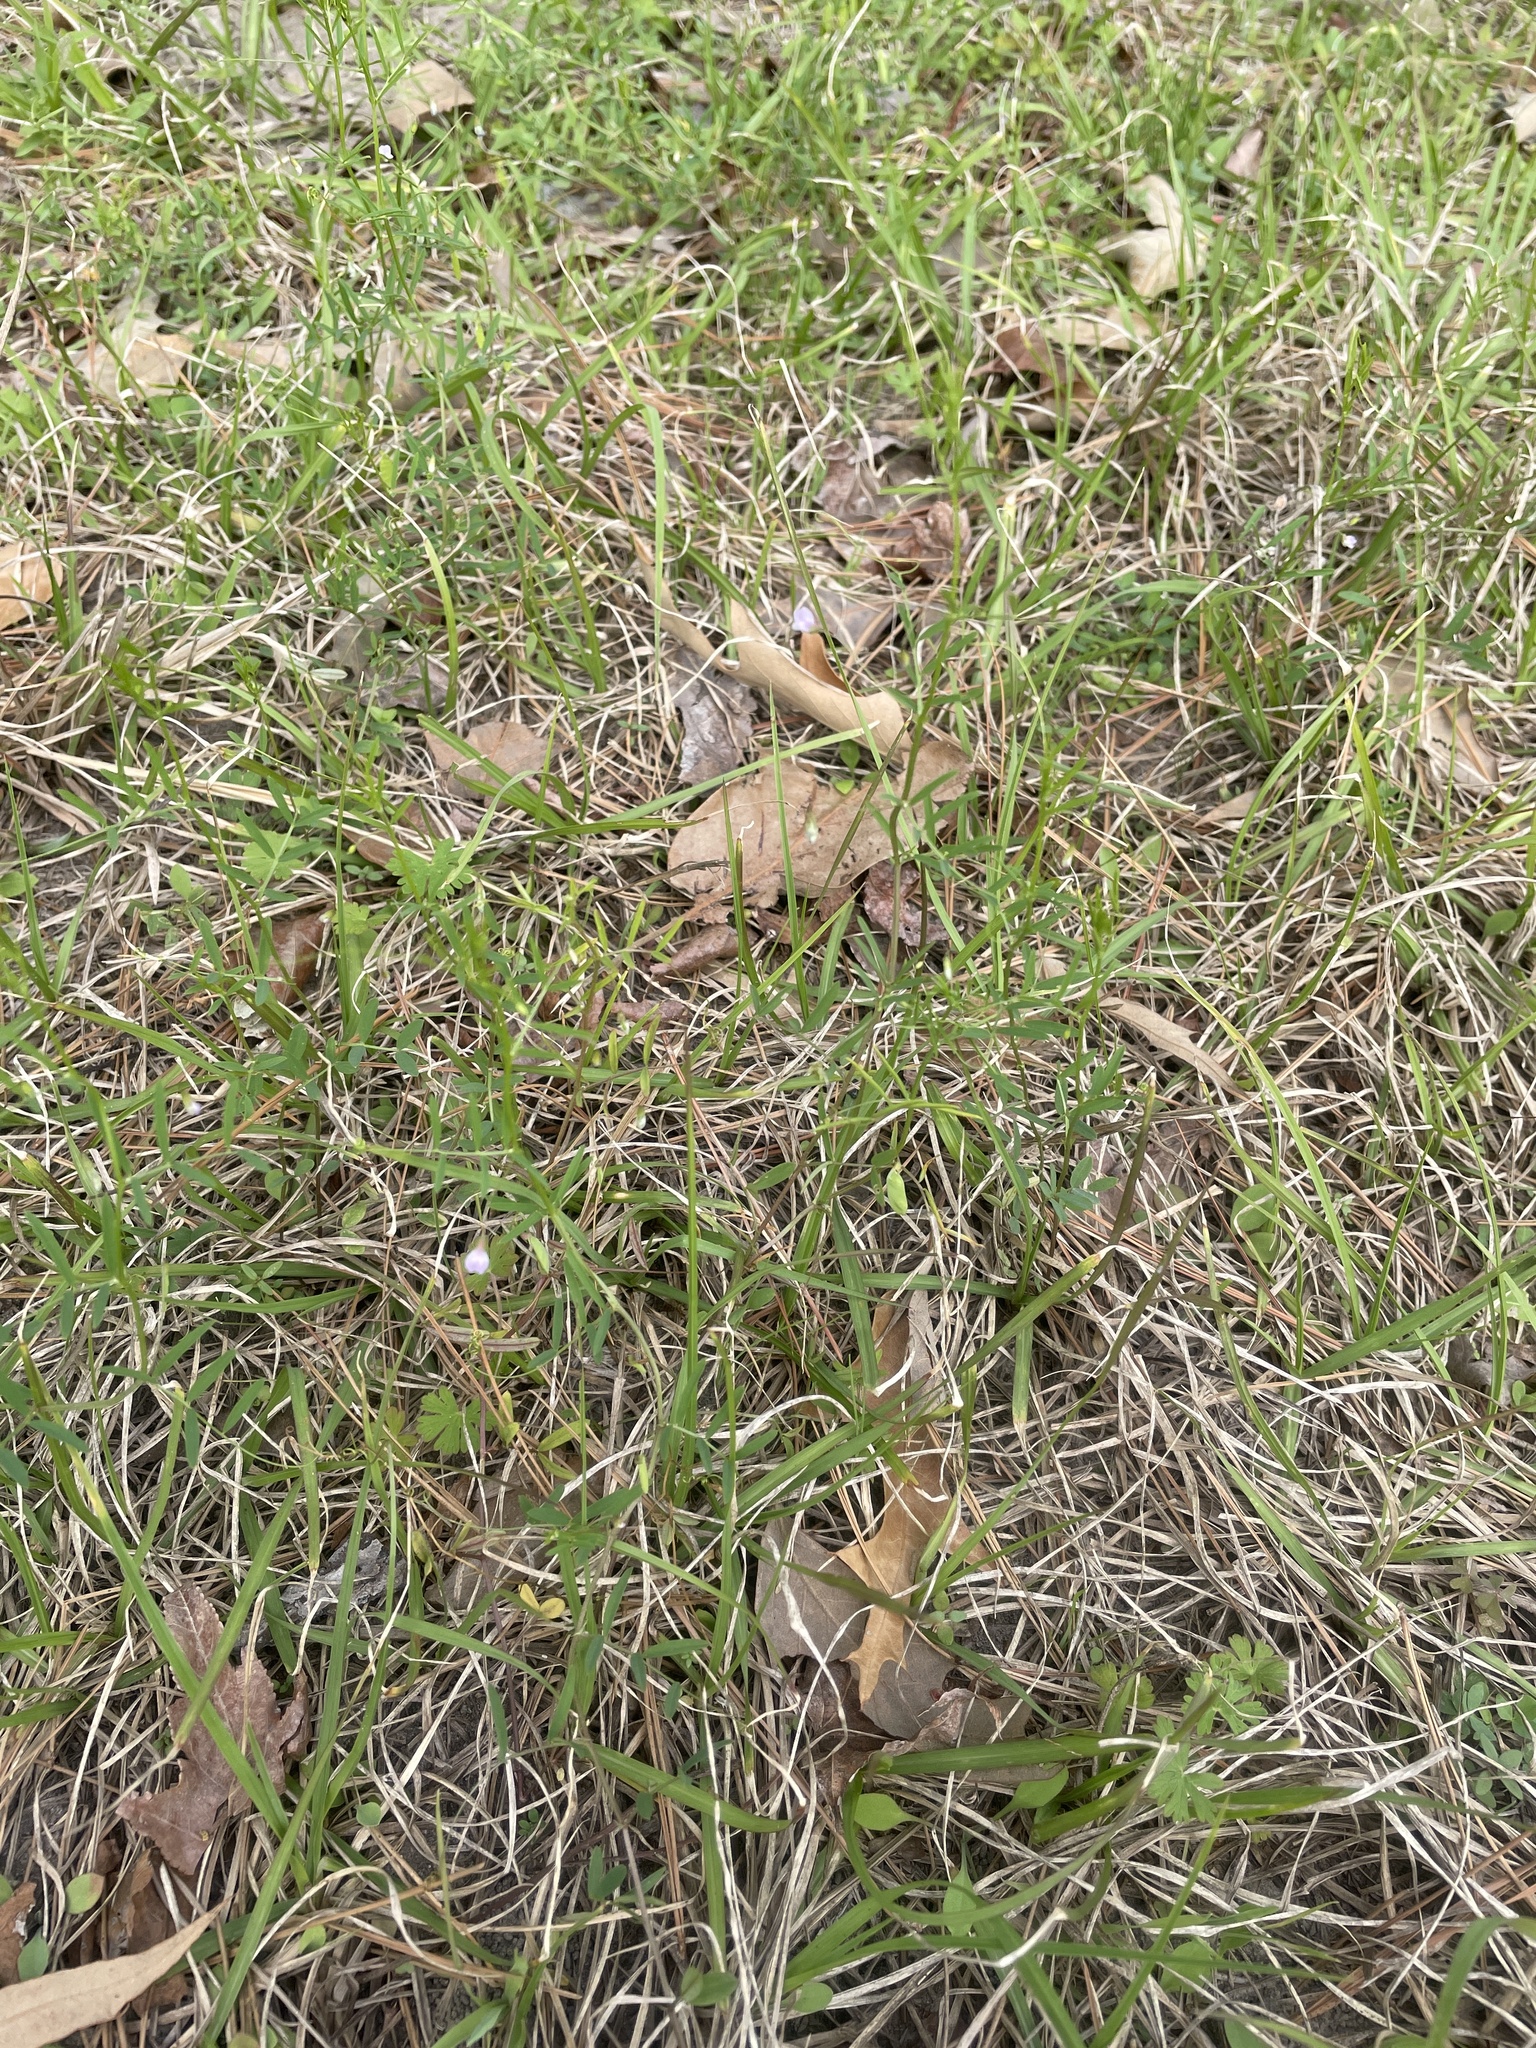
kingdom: Plantae
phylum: Tracheophyta
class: Magnoliopsida
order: Fabales
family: Fabaceae
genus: Vicia
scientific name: Vicia tetrasperma
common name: Smooth tare
